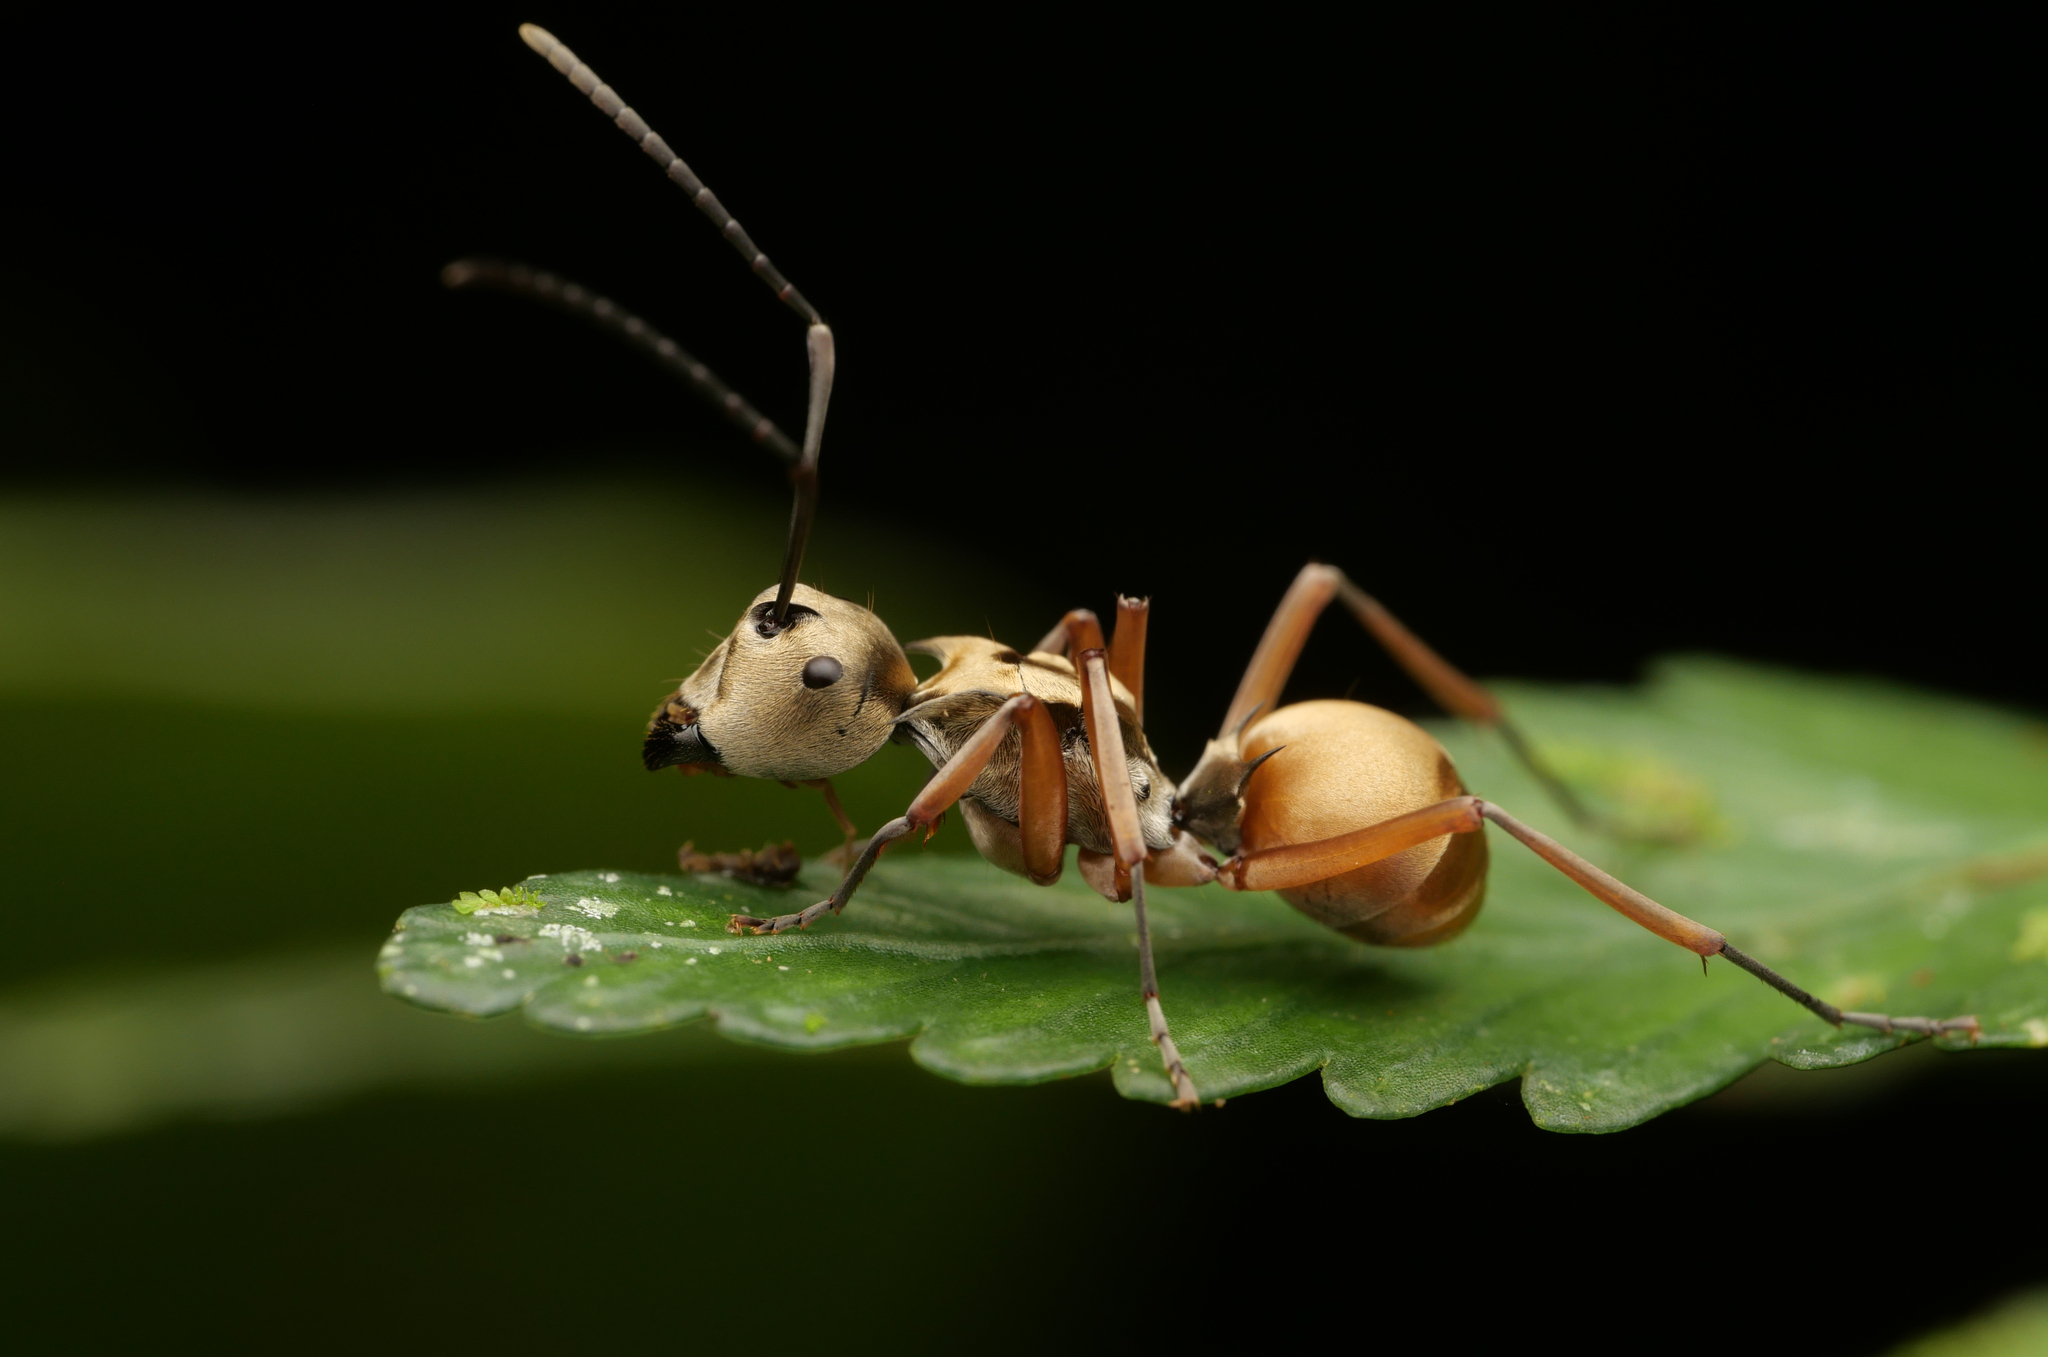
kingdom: Animalia
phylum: Arthropoda
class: Insecta
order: Hymenoptera
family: Formicidae
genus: Polyrhachis
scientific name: Polyrhachis
